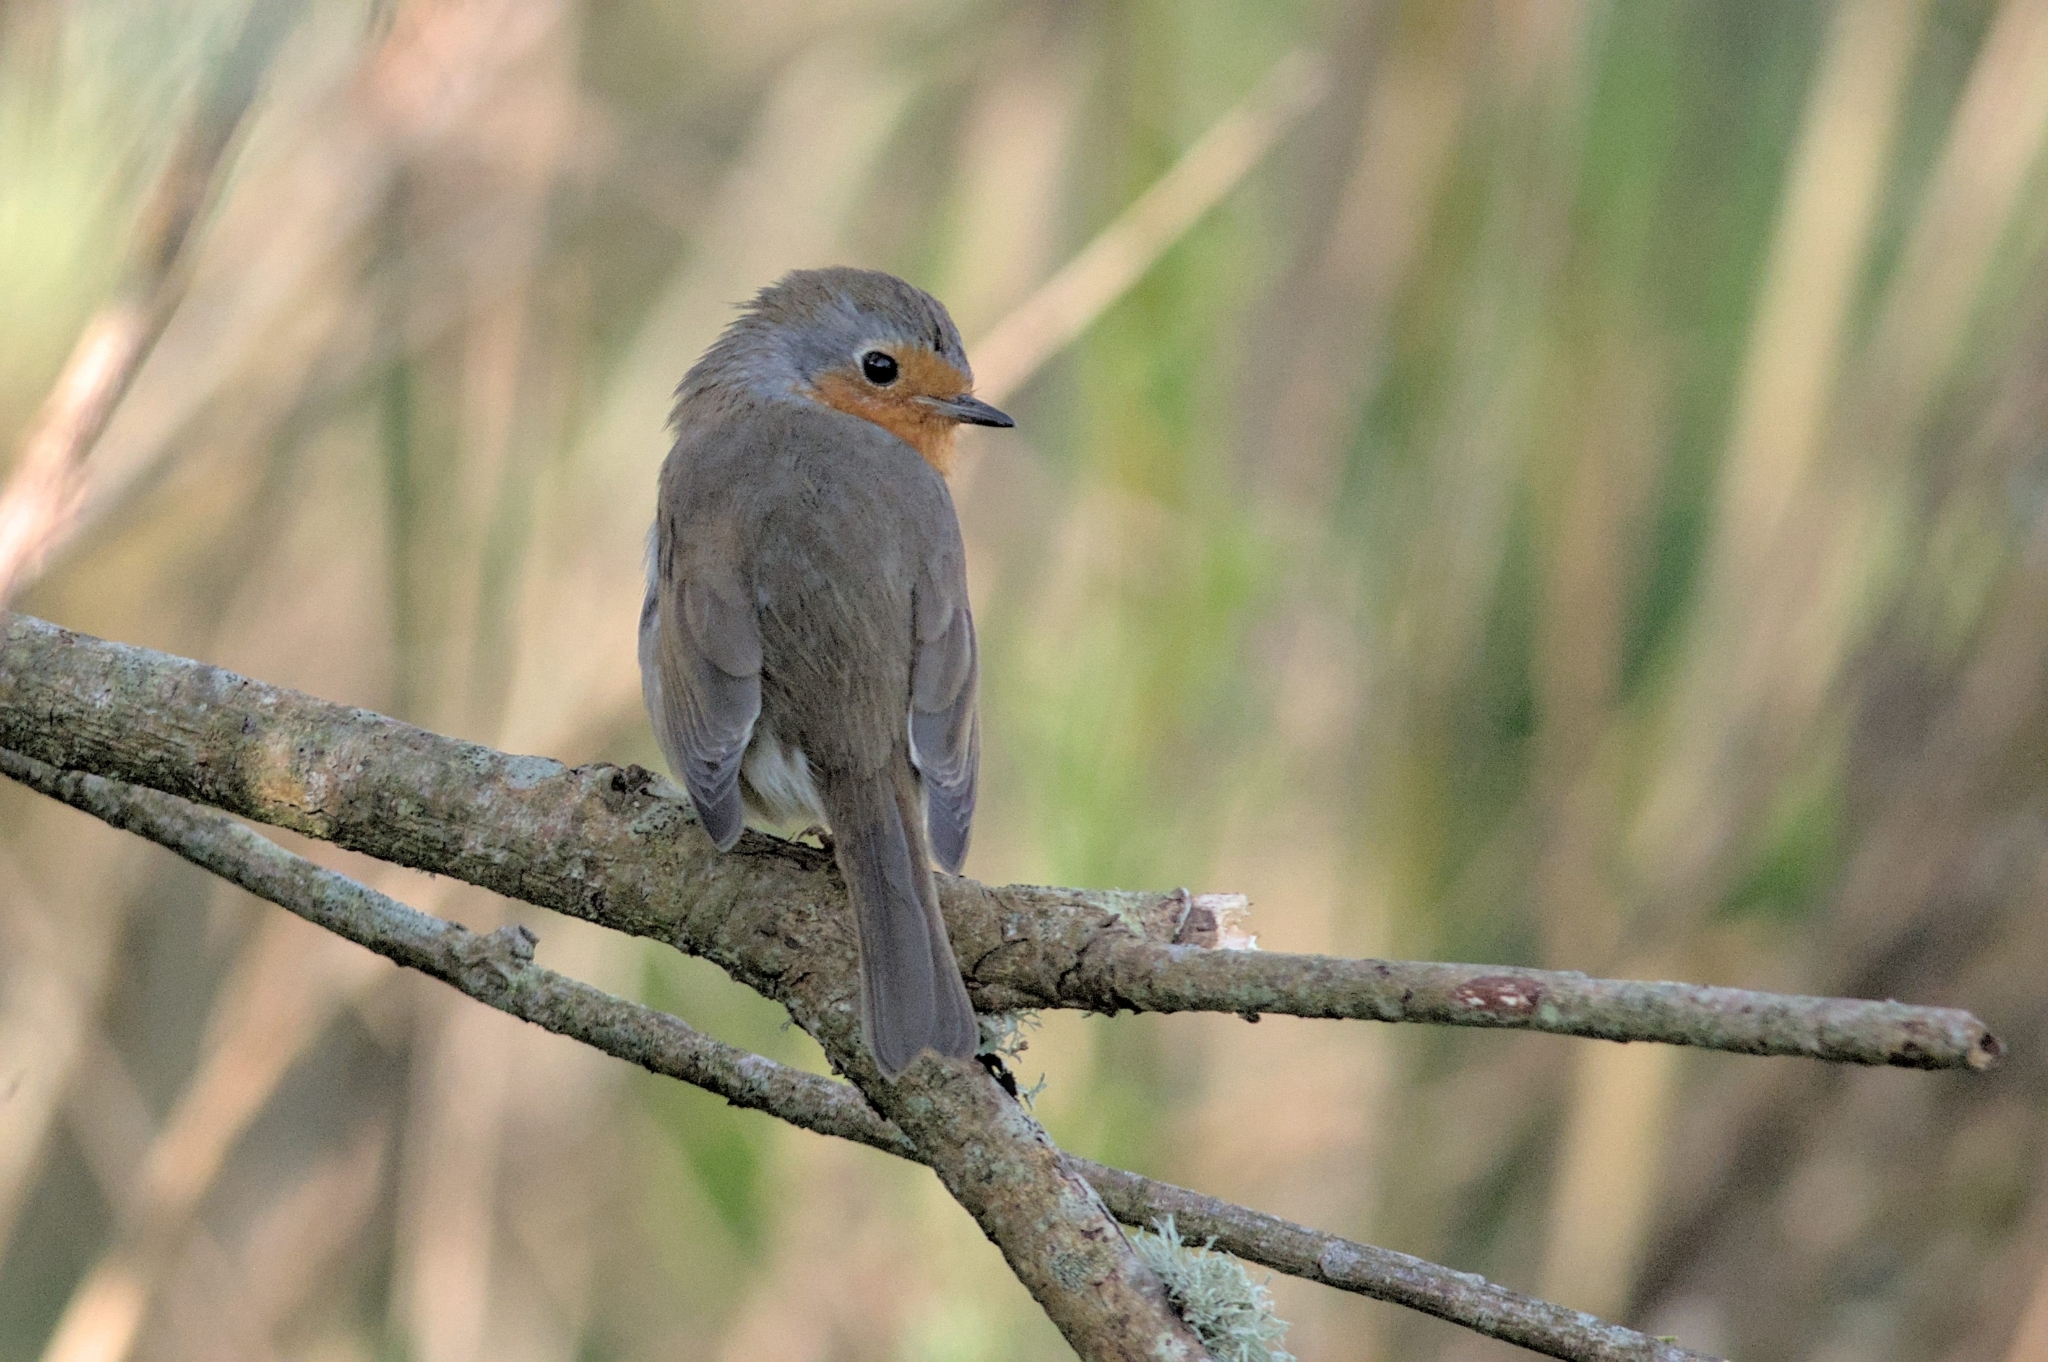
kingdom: Animalia
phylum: Chordata
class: Aves
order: Passeriformes
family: Muscicapidae
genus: Erithacus
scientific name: Erithacus rubecula
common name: European robin
